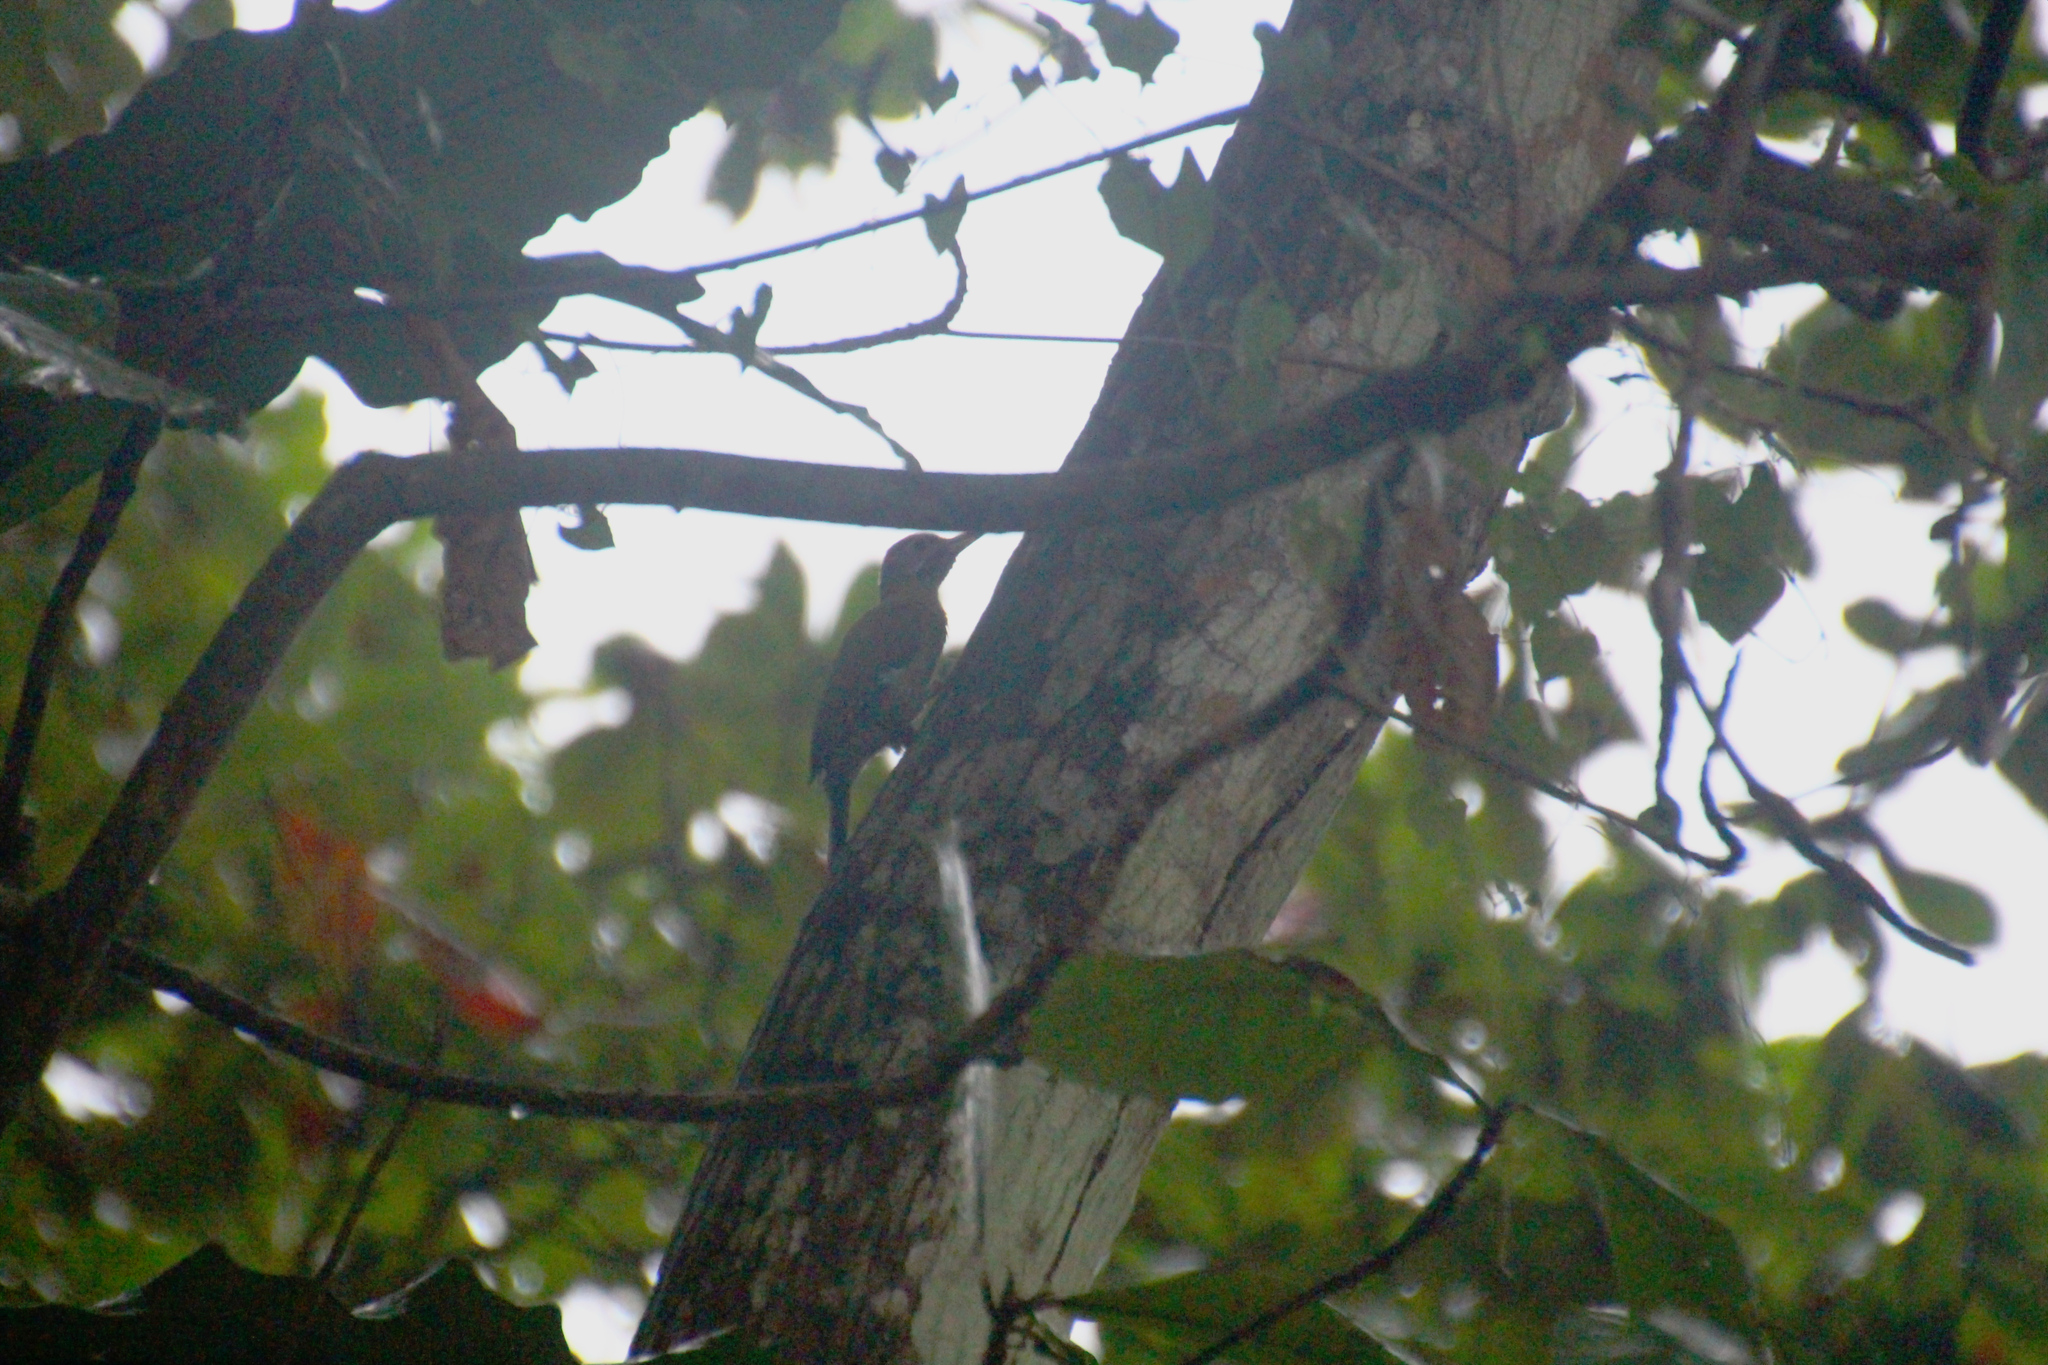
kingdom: Animalia
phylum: Chordata
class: Aves
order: Piciformes
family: Picidae
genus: Picus
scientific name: Picus vittatus
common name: Laced woodpecker
